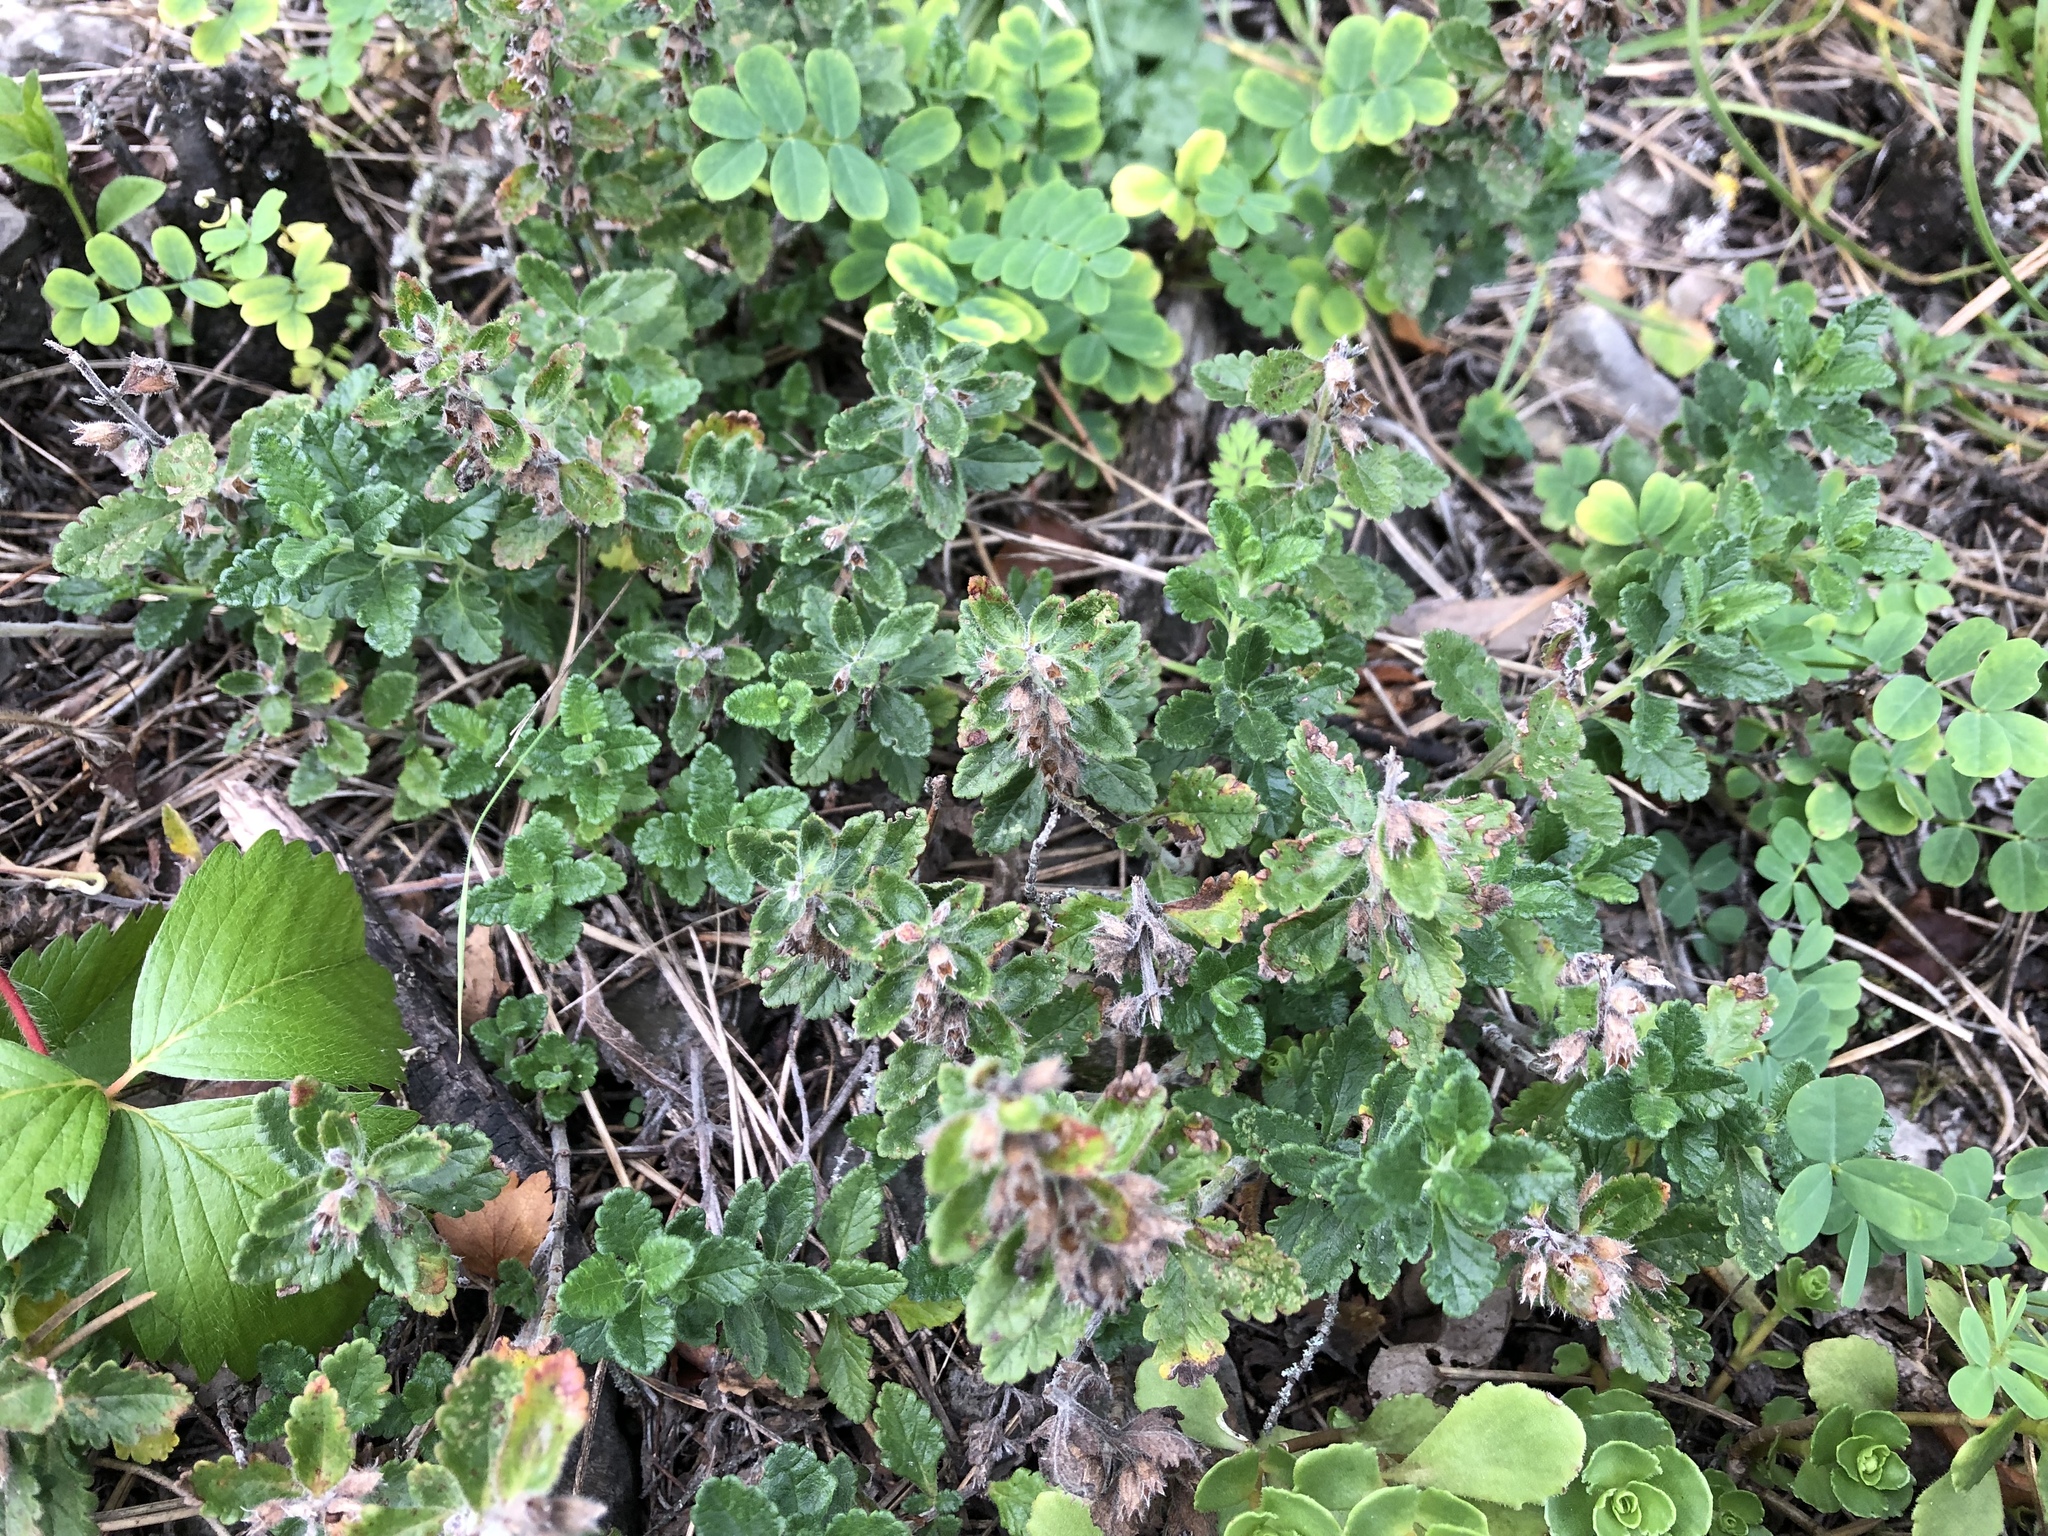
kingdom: Plantae
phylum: Tracheophyta
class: Magnoliopsida
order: Lamiales
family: Lamiaceae
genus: Teucrium
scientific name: Teucrium chamaedrys
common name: Wall germander
